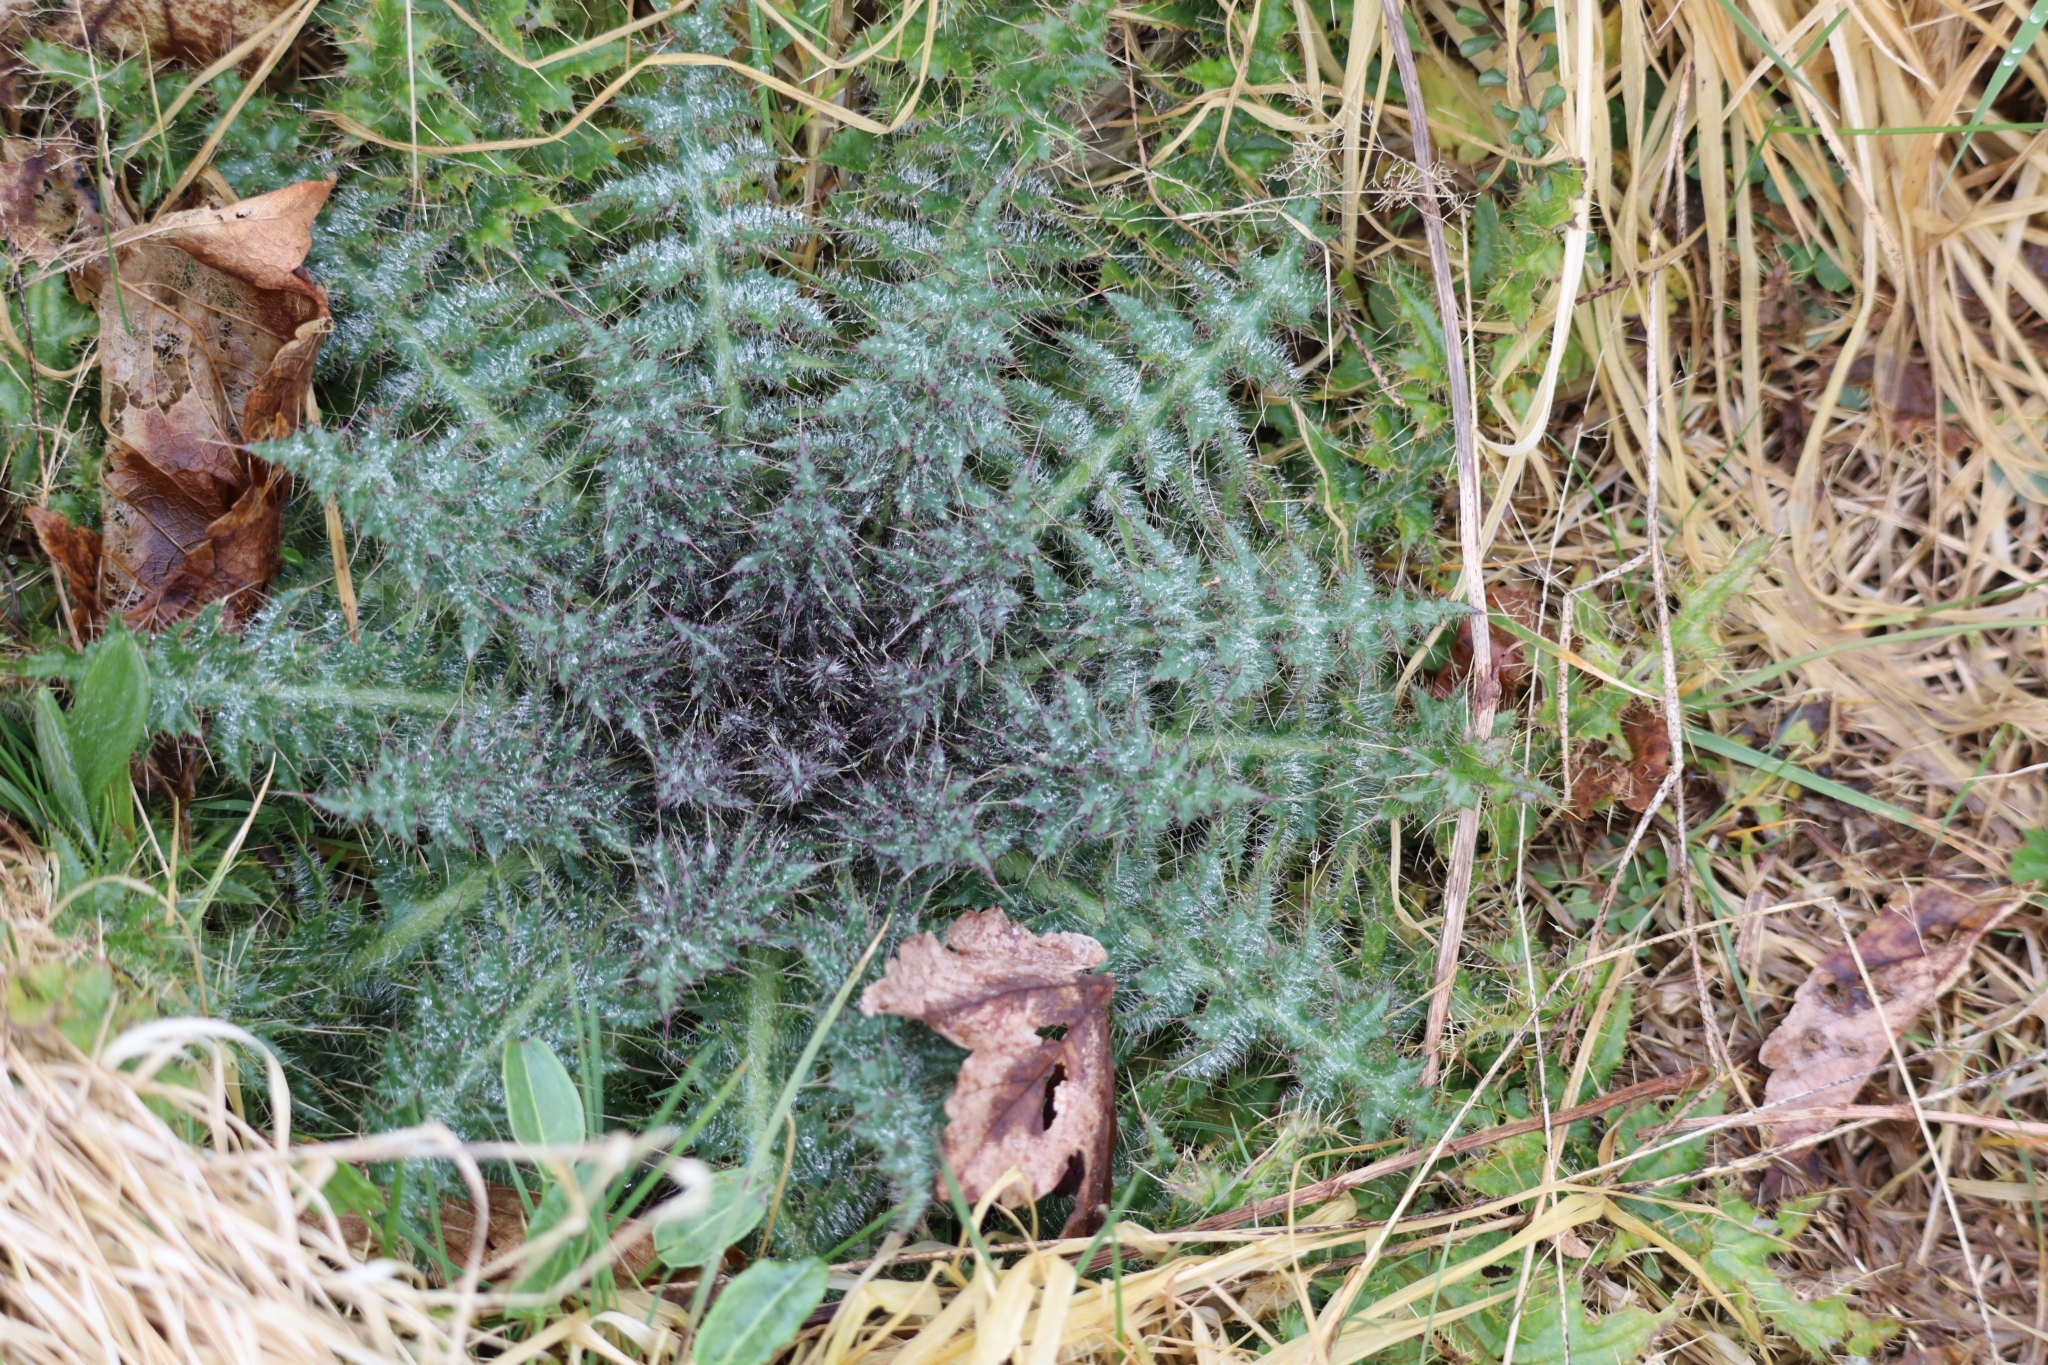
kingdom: Plantae
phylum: Tracheophyta
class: Magnoliopsida
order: Asterales
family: Asteraceae
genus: Cirsium
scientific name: Cirsium palustre
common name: Marsh thistle
